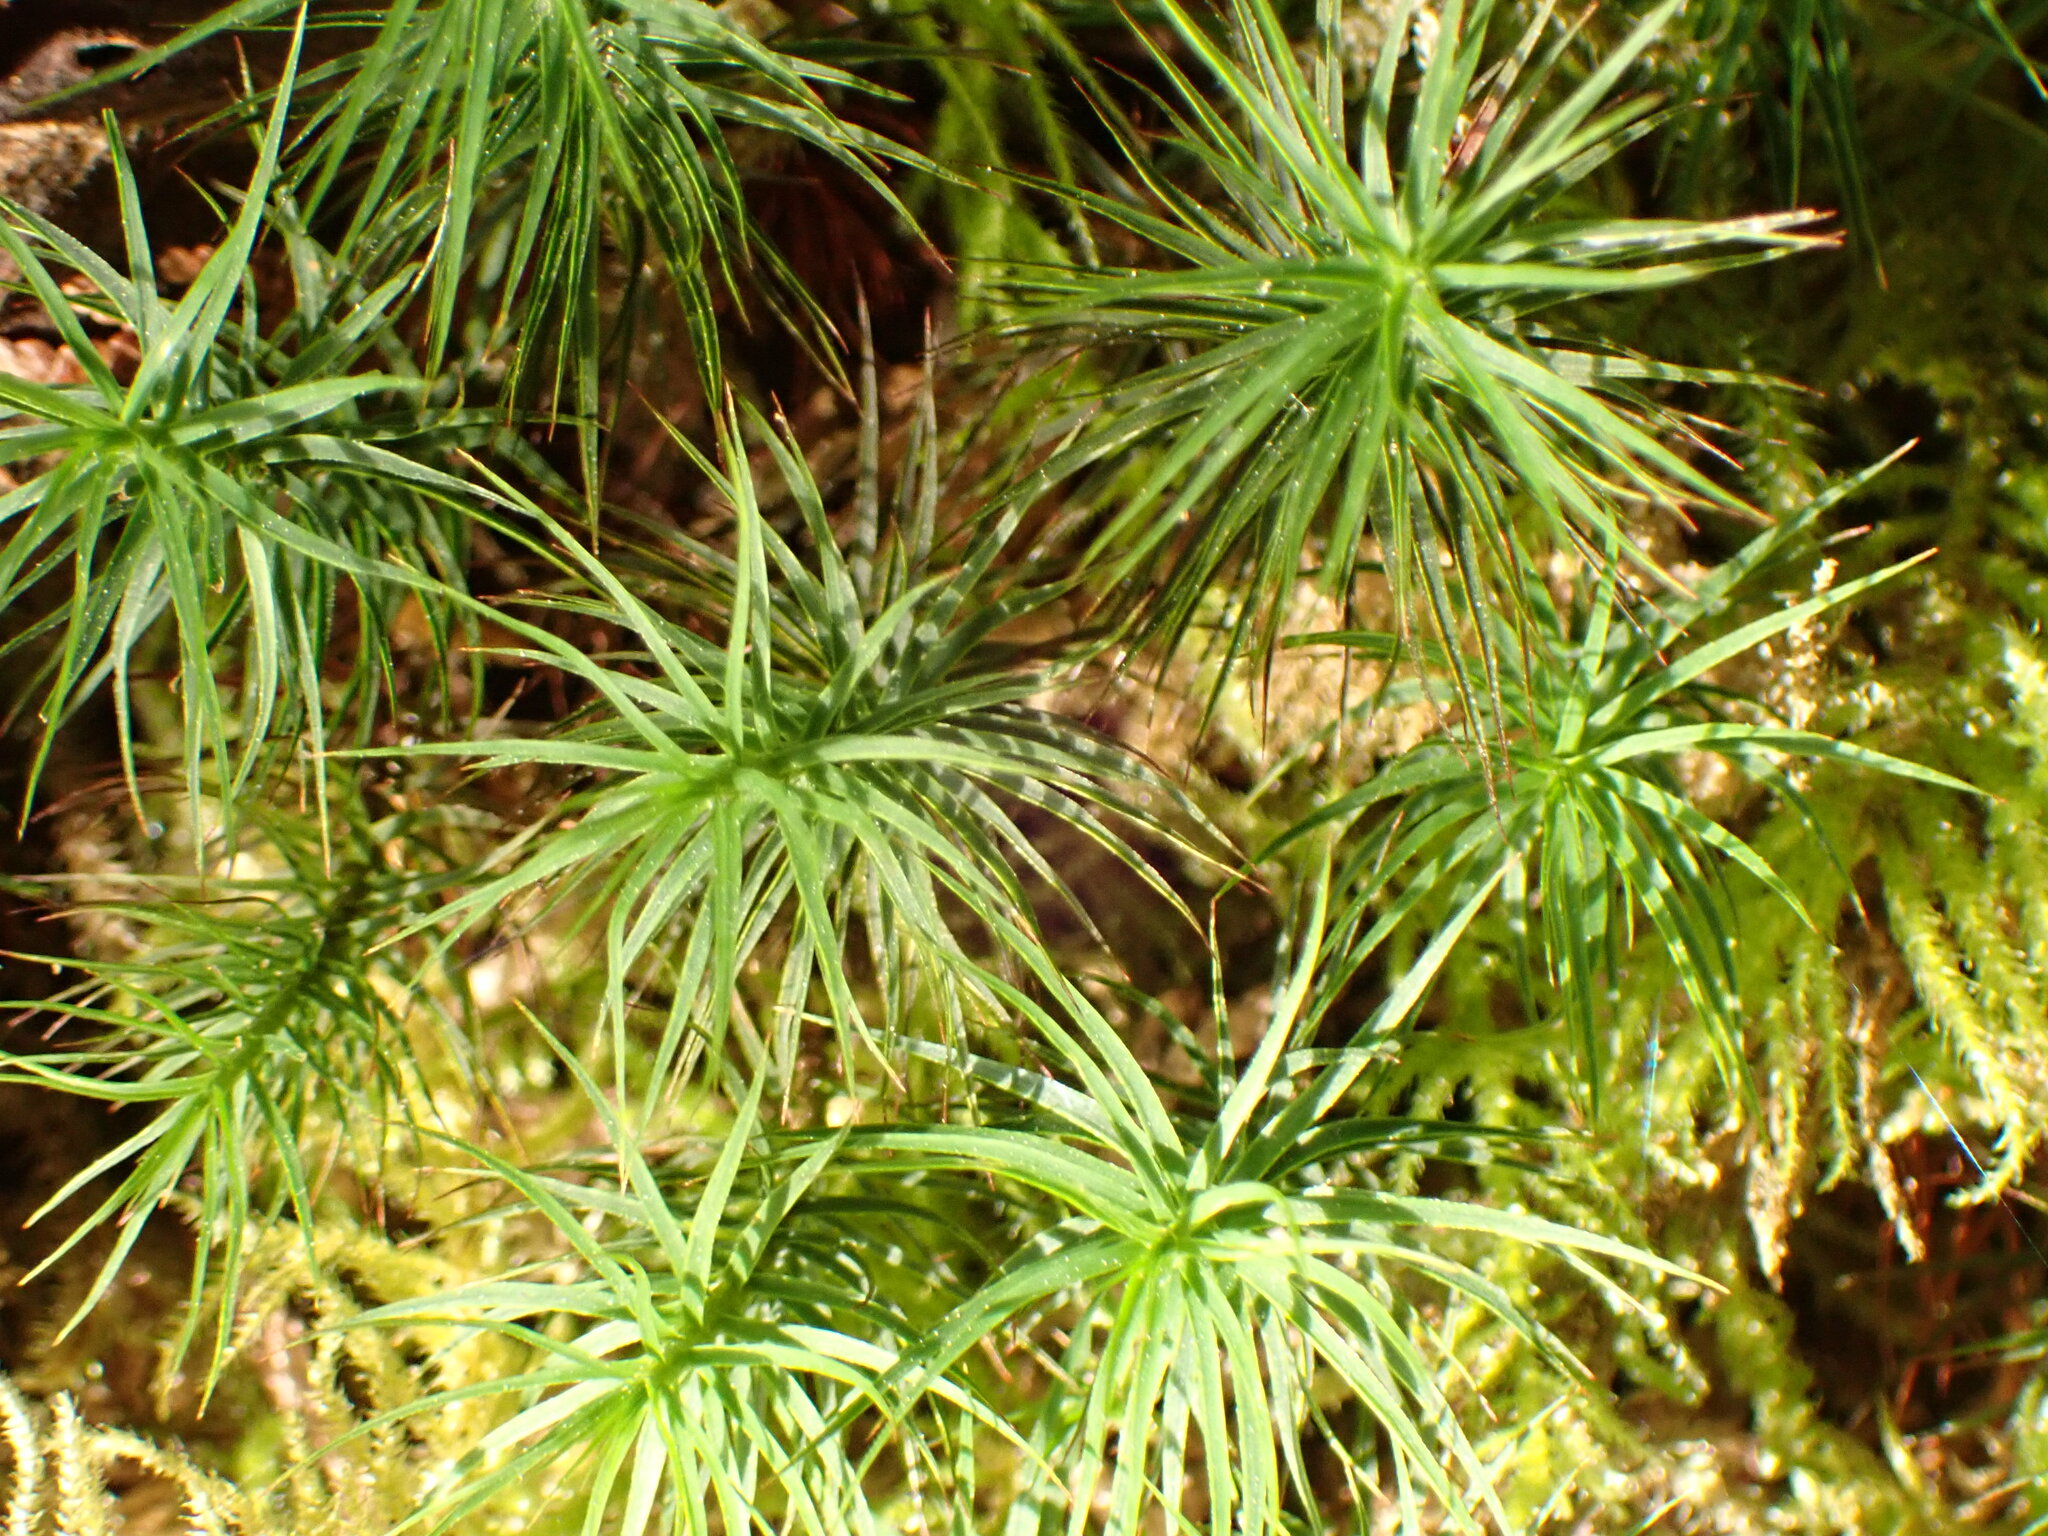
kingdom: Plantae
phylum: Bryophyta
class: Polytrichopsida
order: Polytrichales
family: Polytrichaceae
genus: Polytrichastrum
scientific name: Polytrichastrum alpinum
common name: Alpine haircap
